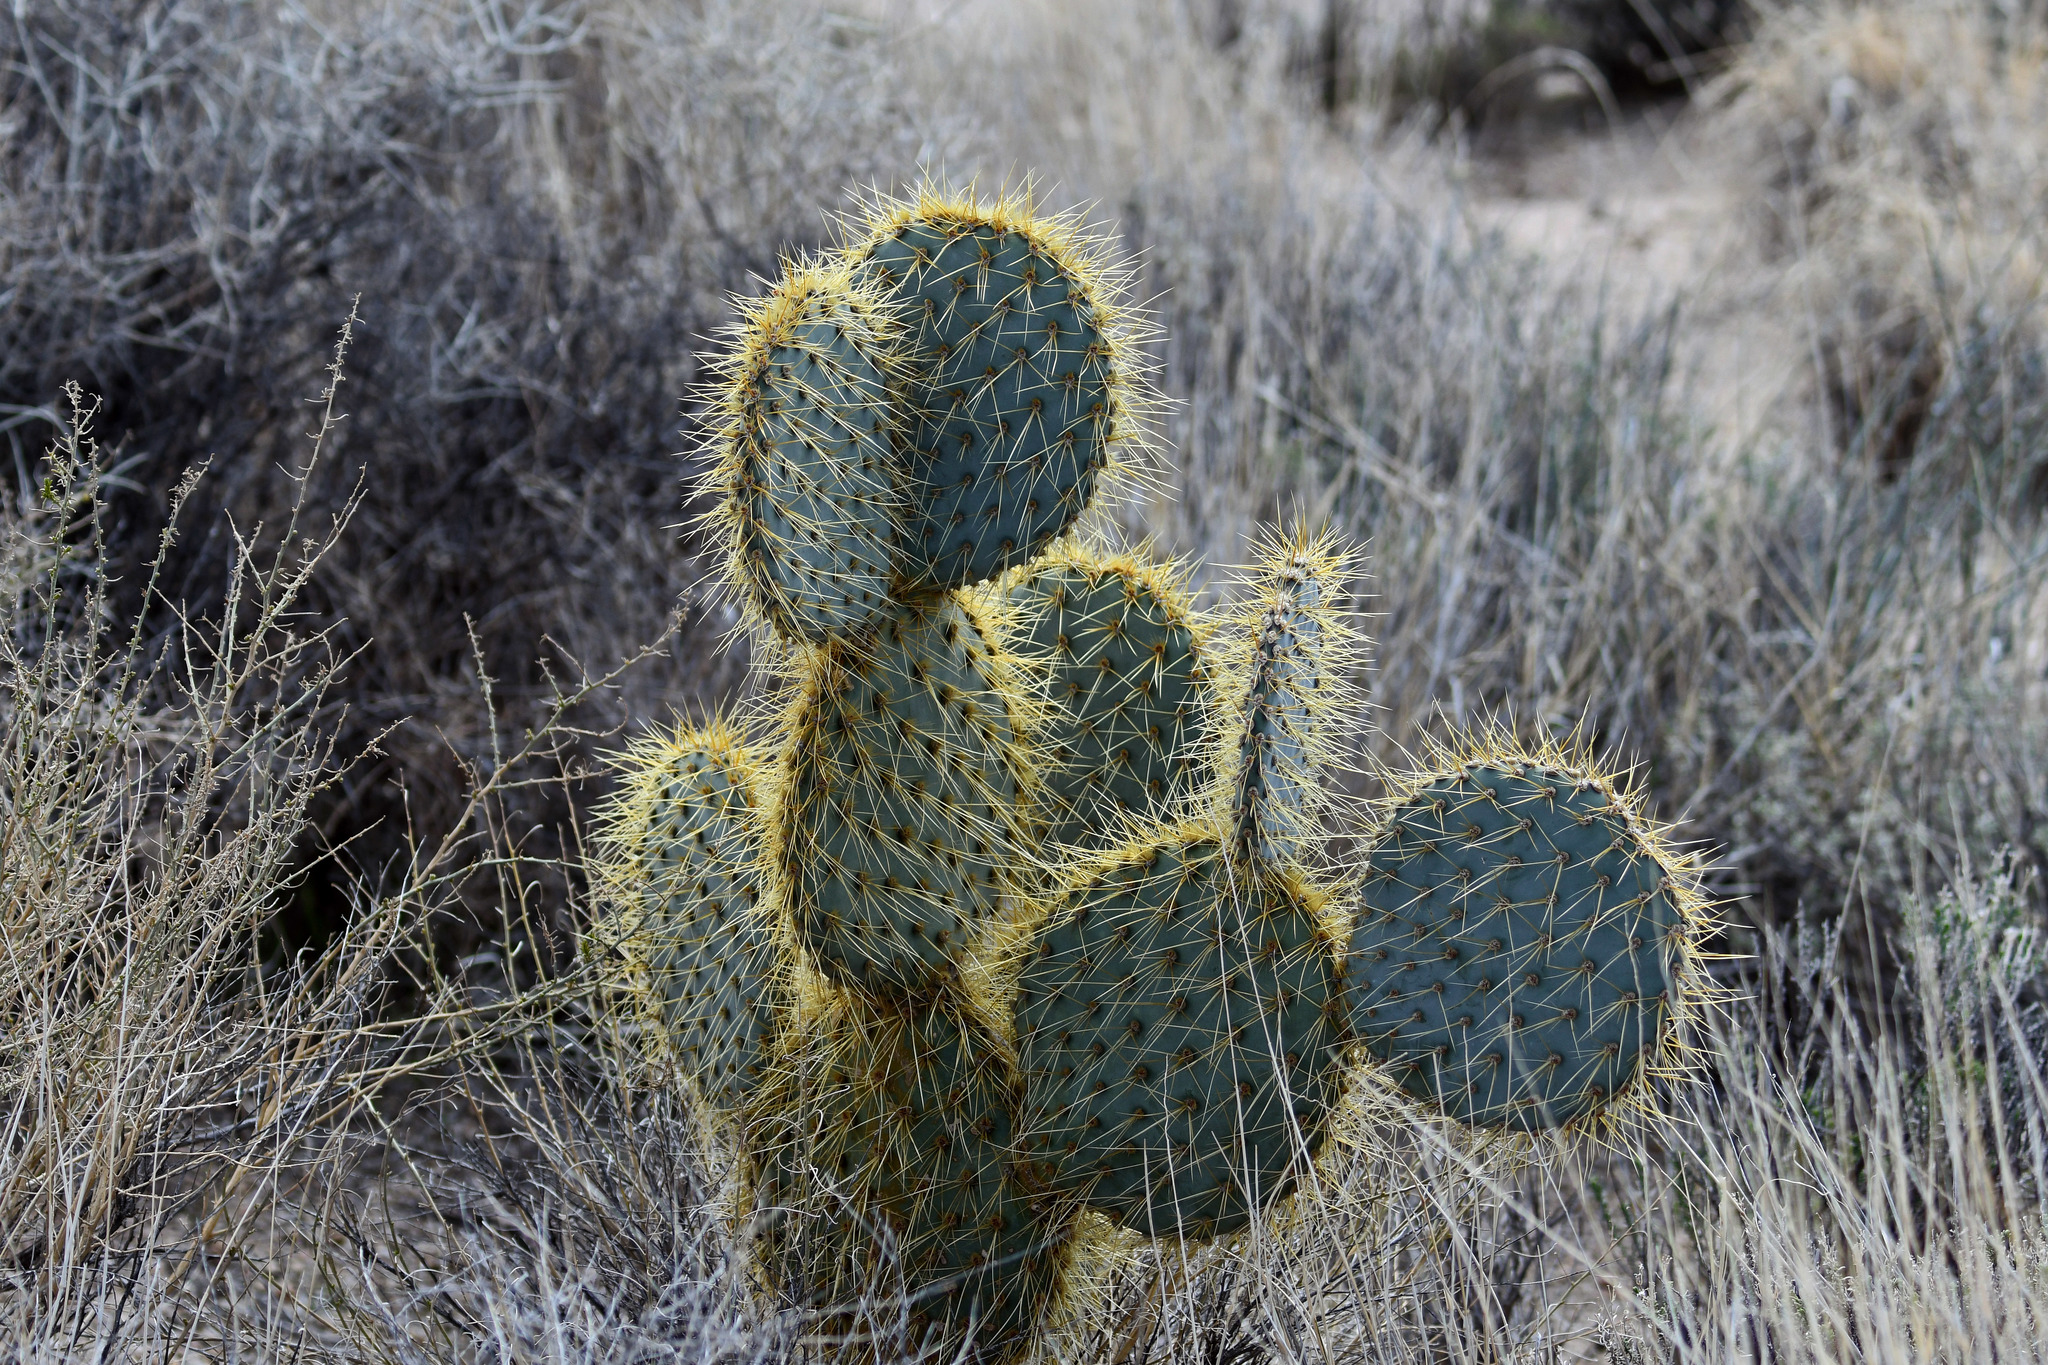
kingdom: Plantae
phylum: Tracheophyta
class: Magnoliopsida
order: Caryophyllales
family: Cactaceae
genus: Opuntia
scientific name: Opuntia chlorotica
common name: Dollar-joint prickly-pear
